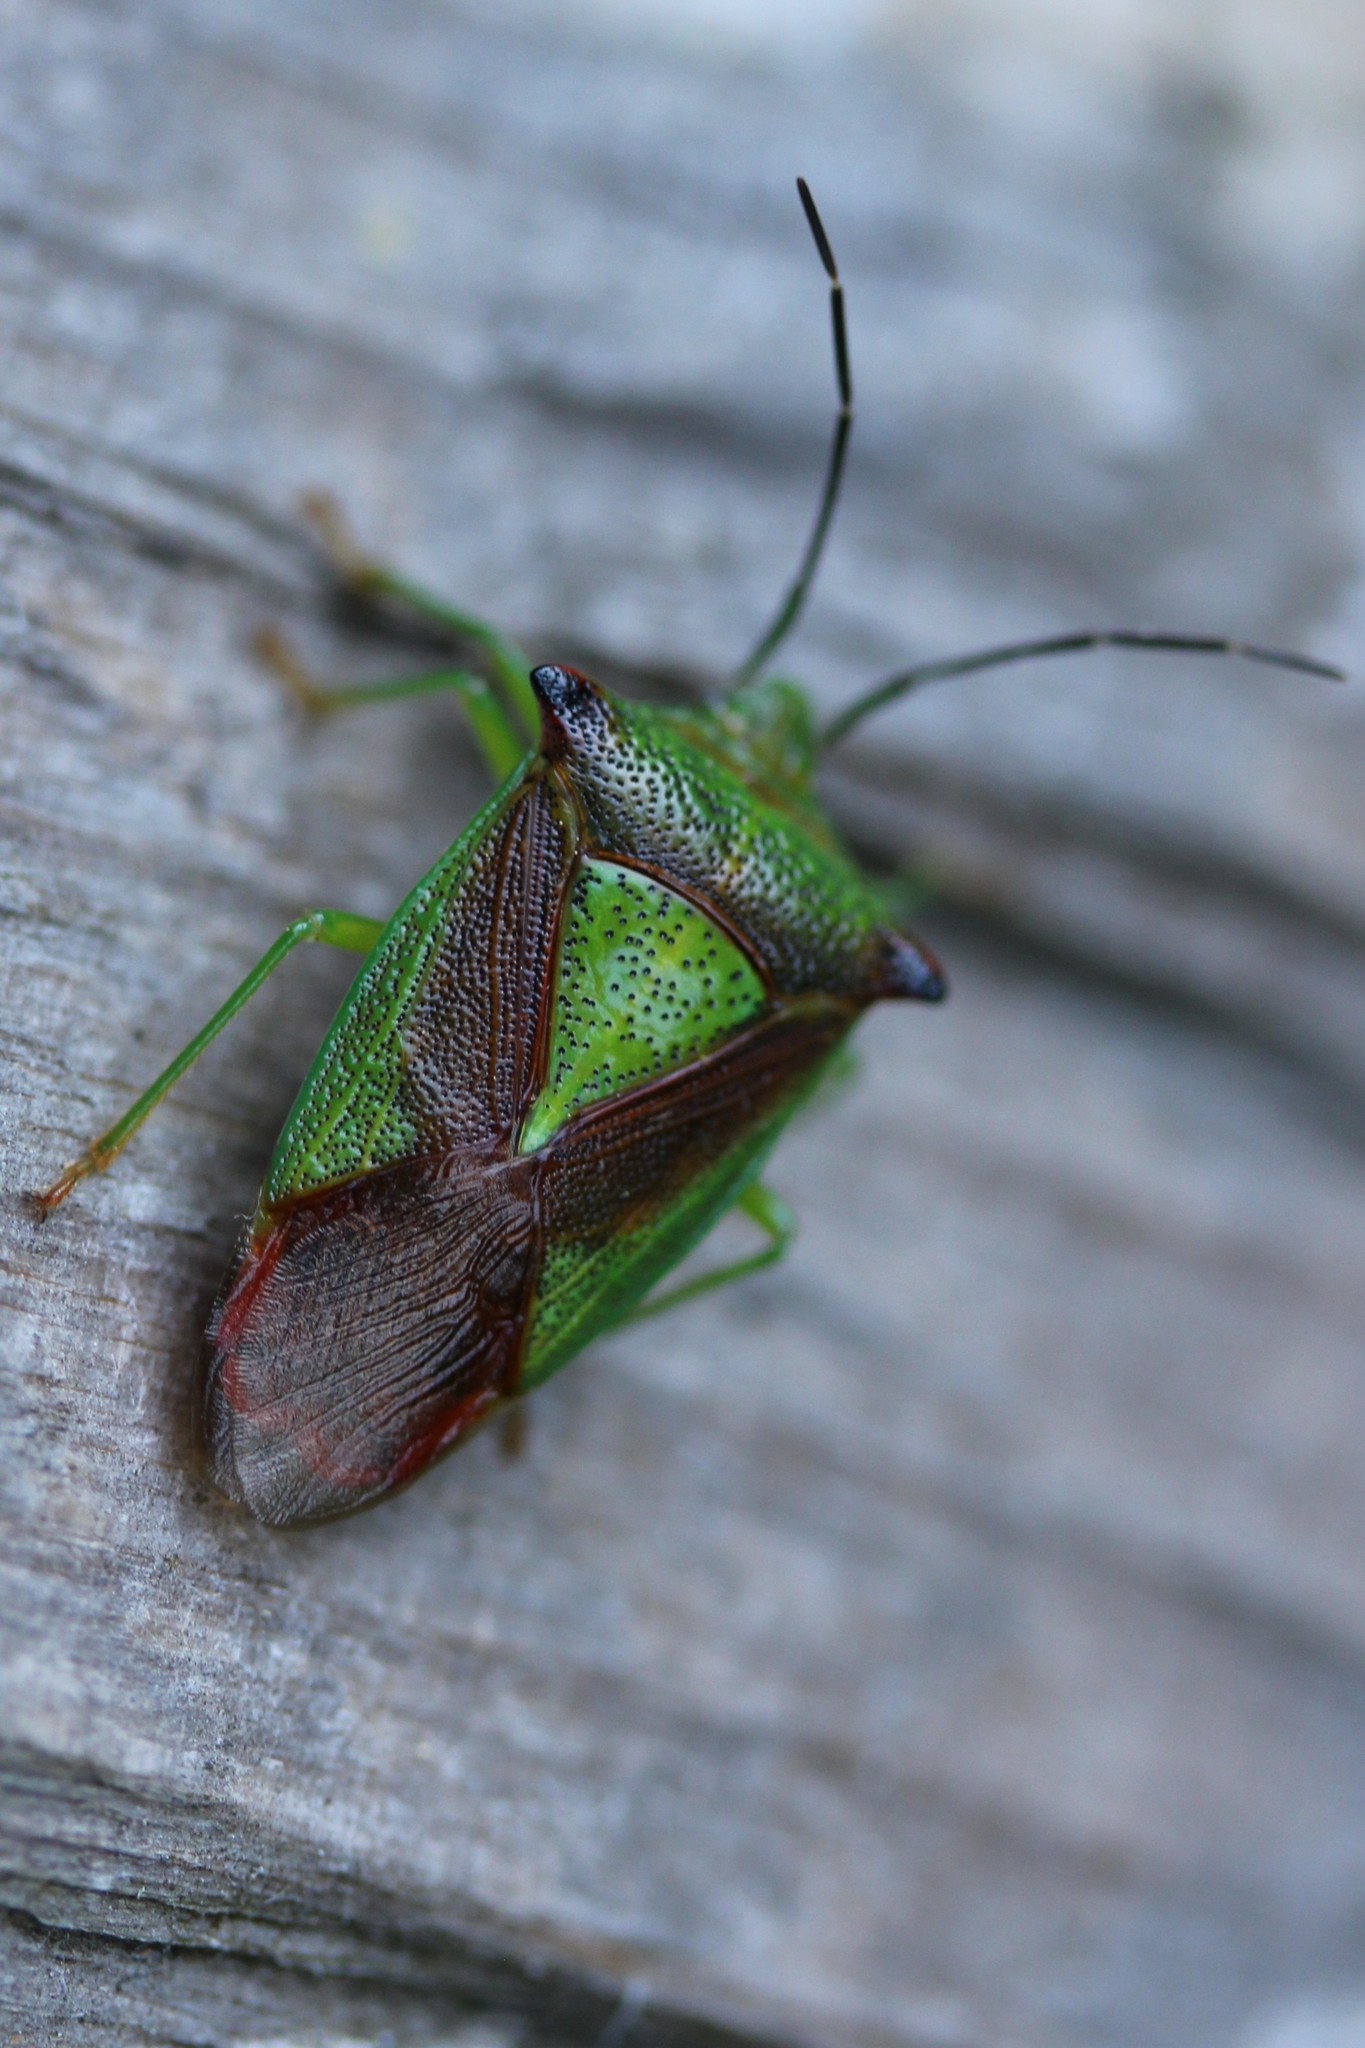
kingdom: Animalia
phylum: Arthropoda
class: Insecta
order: Hemiptera
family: Acanthosomatidae
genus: Acanthosoma
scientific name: Acanthosoma haemorrhoidale
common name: Hawthorn shieldbug
